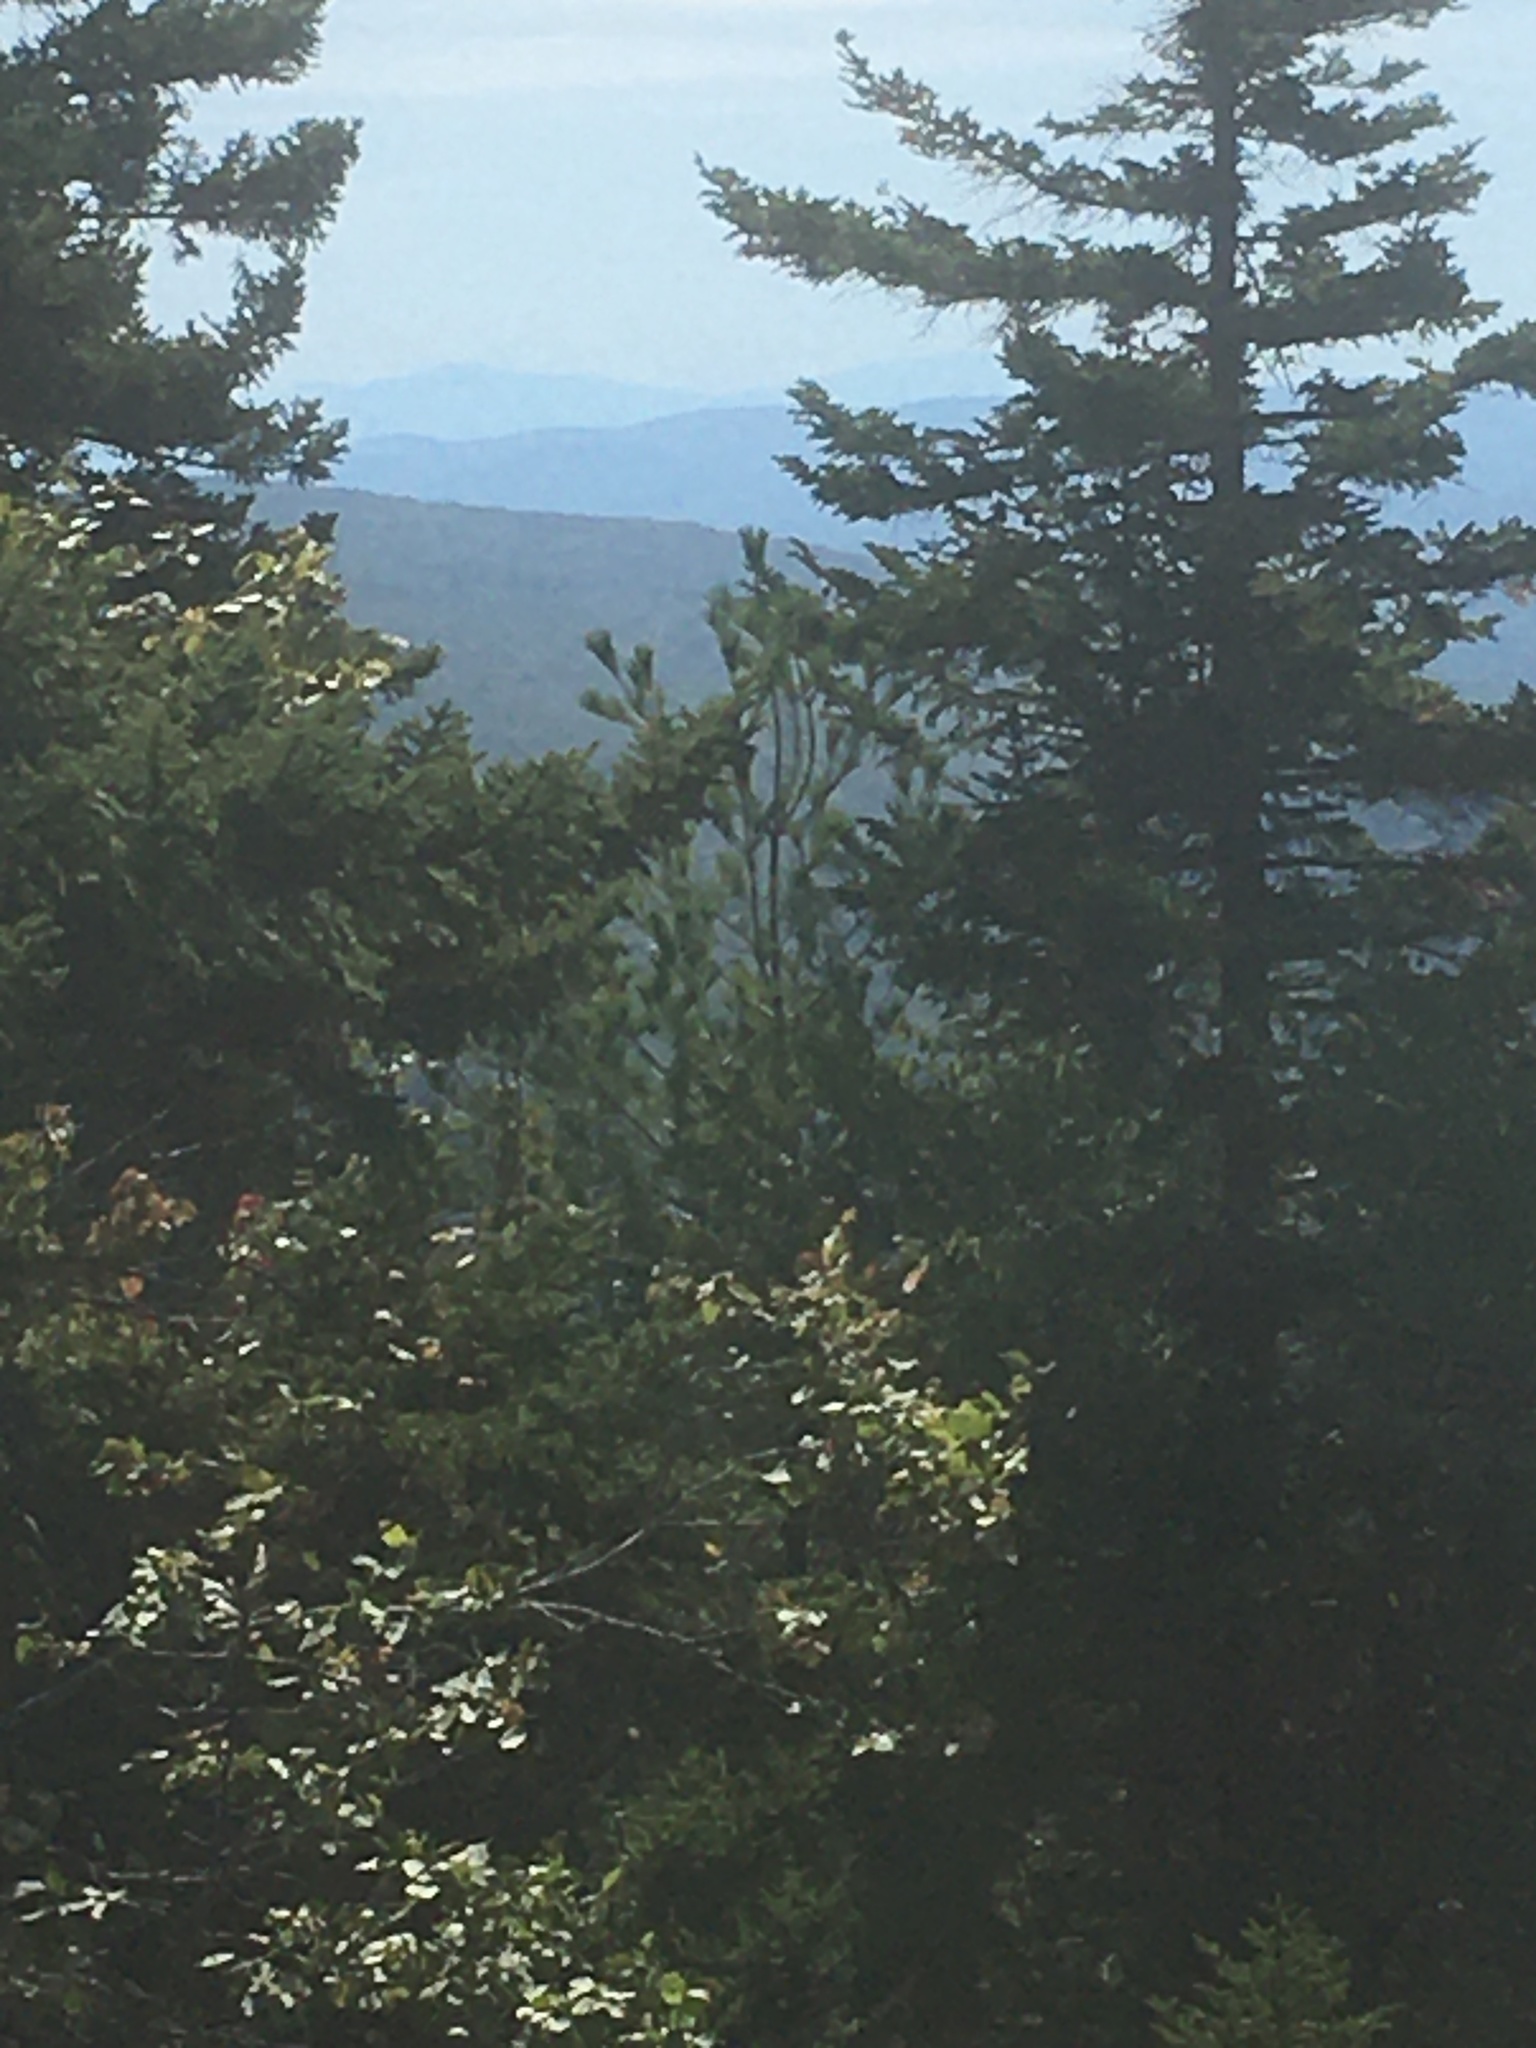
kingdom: Plantae
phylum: Tracheophyta
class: Pinopsida
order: Pinales
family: Pinaceae
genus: Pinus
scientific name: Pinus strobus
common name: Weymouth pine
